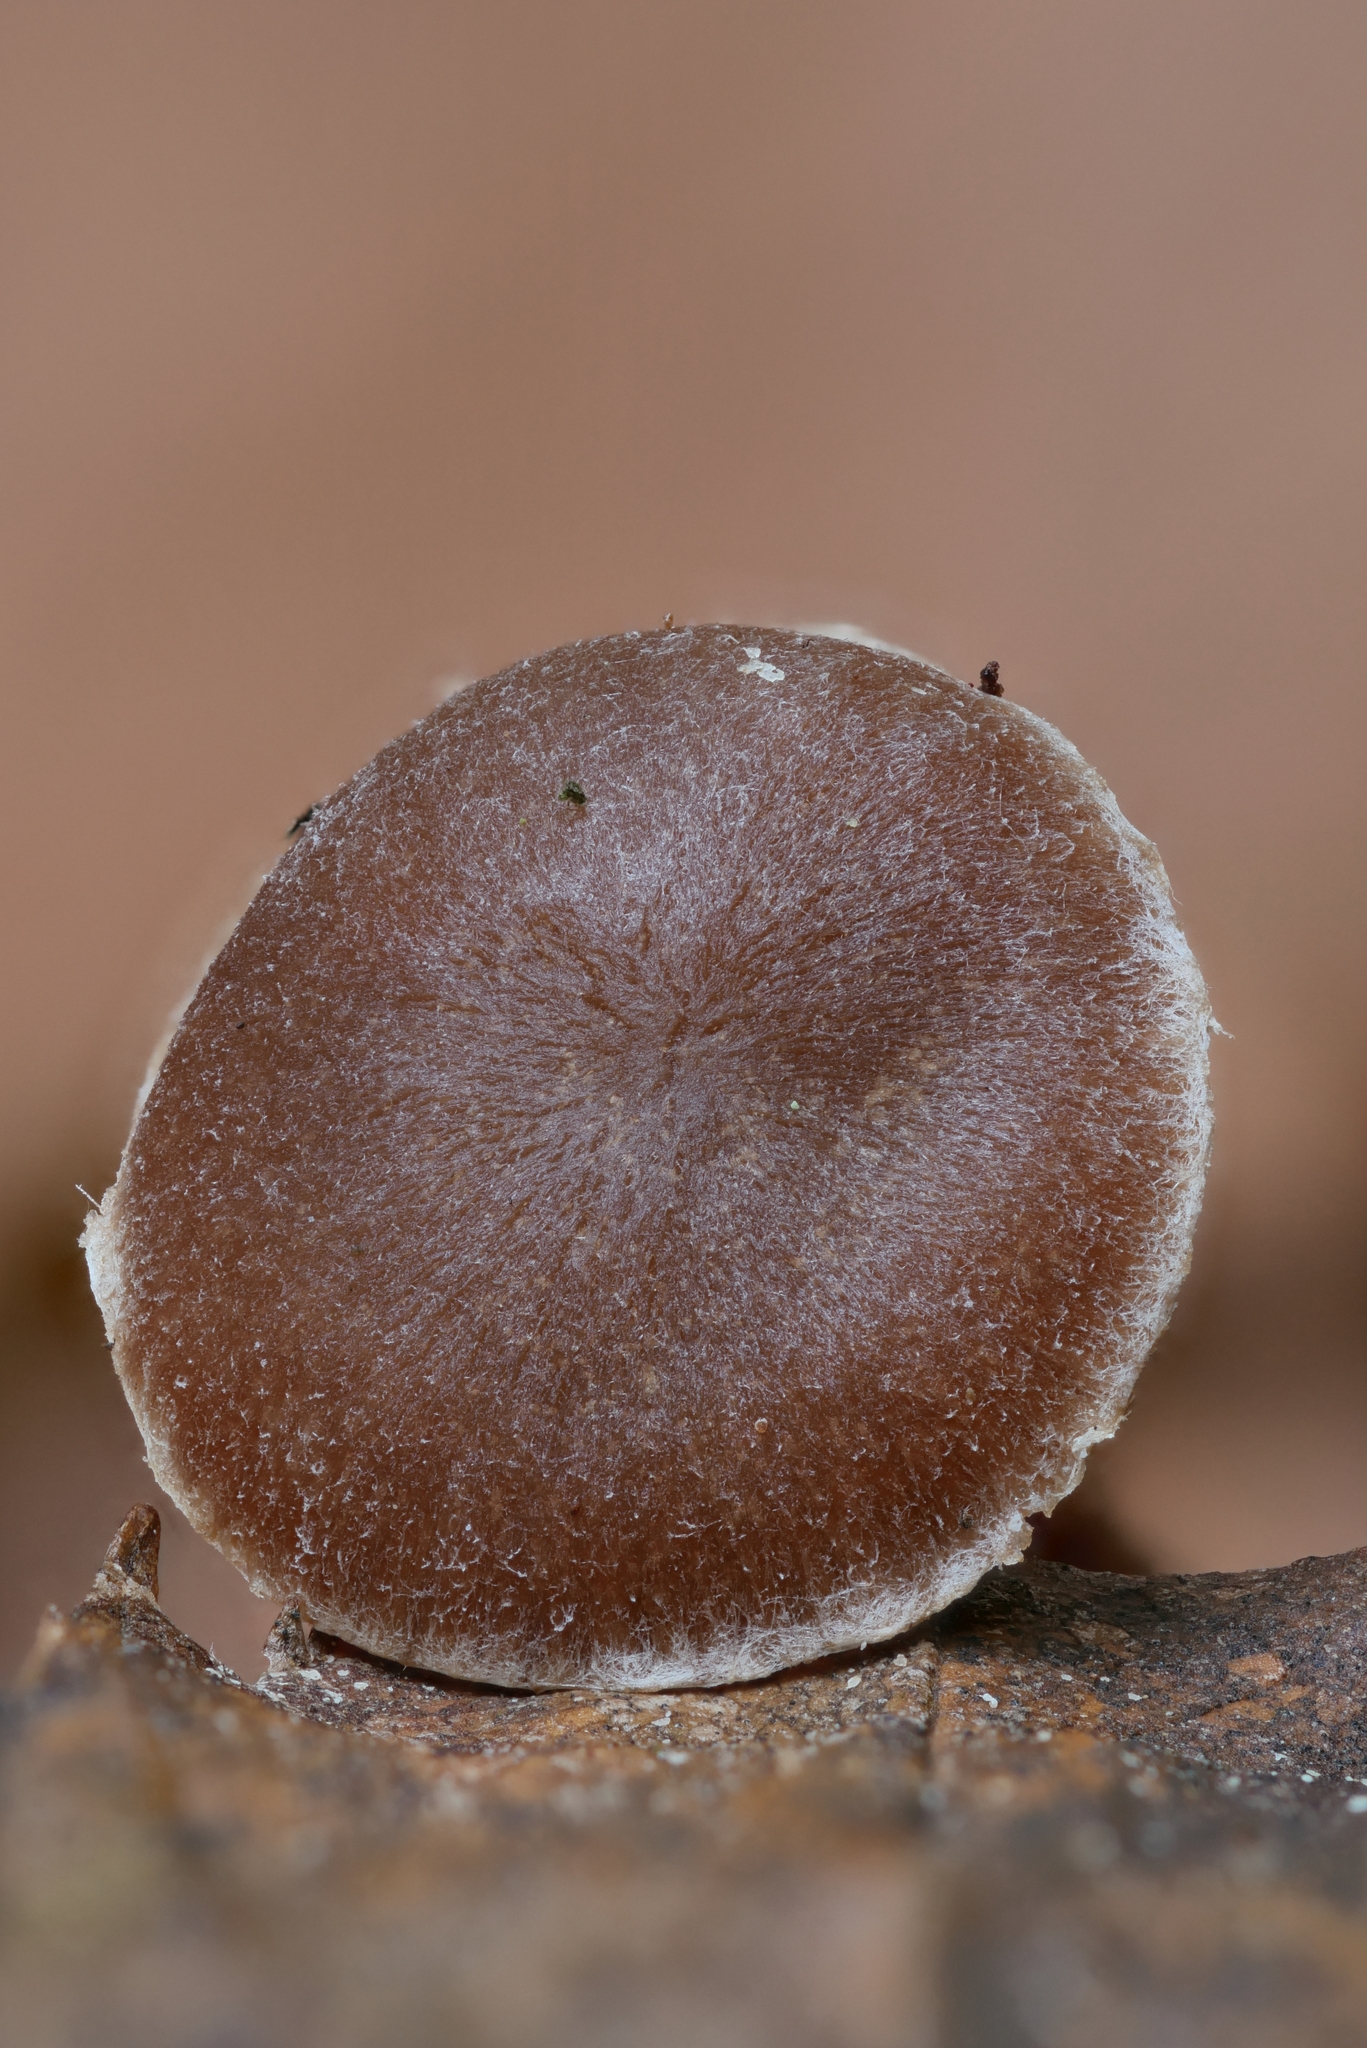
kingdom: Fungi
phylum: Basidiomycota
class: Agaricomycetes
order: Agaricales
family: Tubariaceae
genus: Tubaria
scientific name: Tubaria furfuracea
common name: Scurfy twiglet
